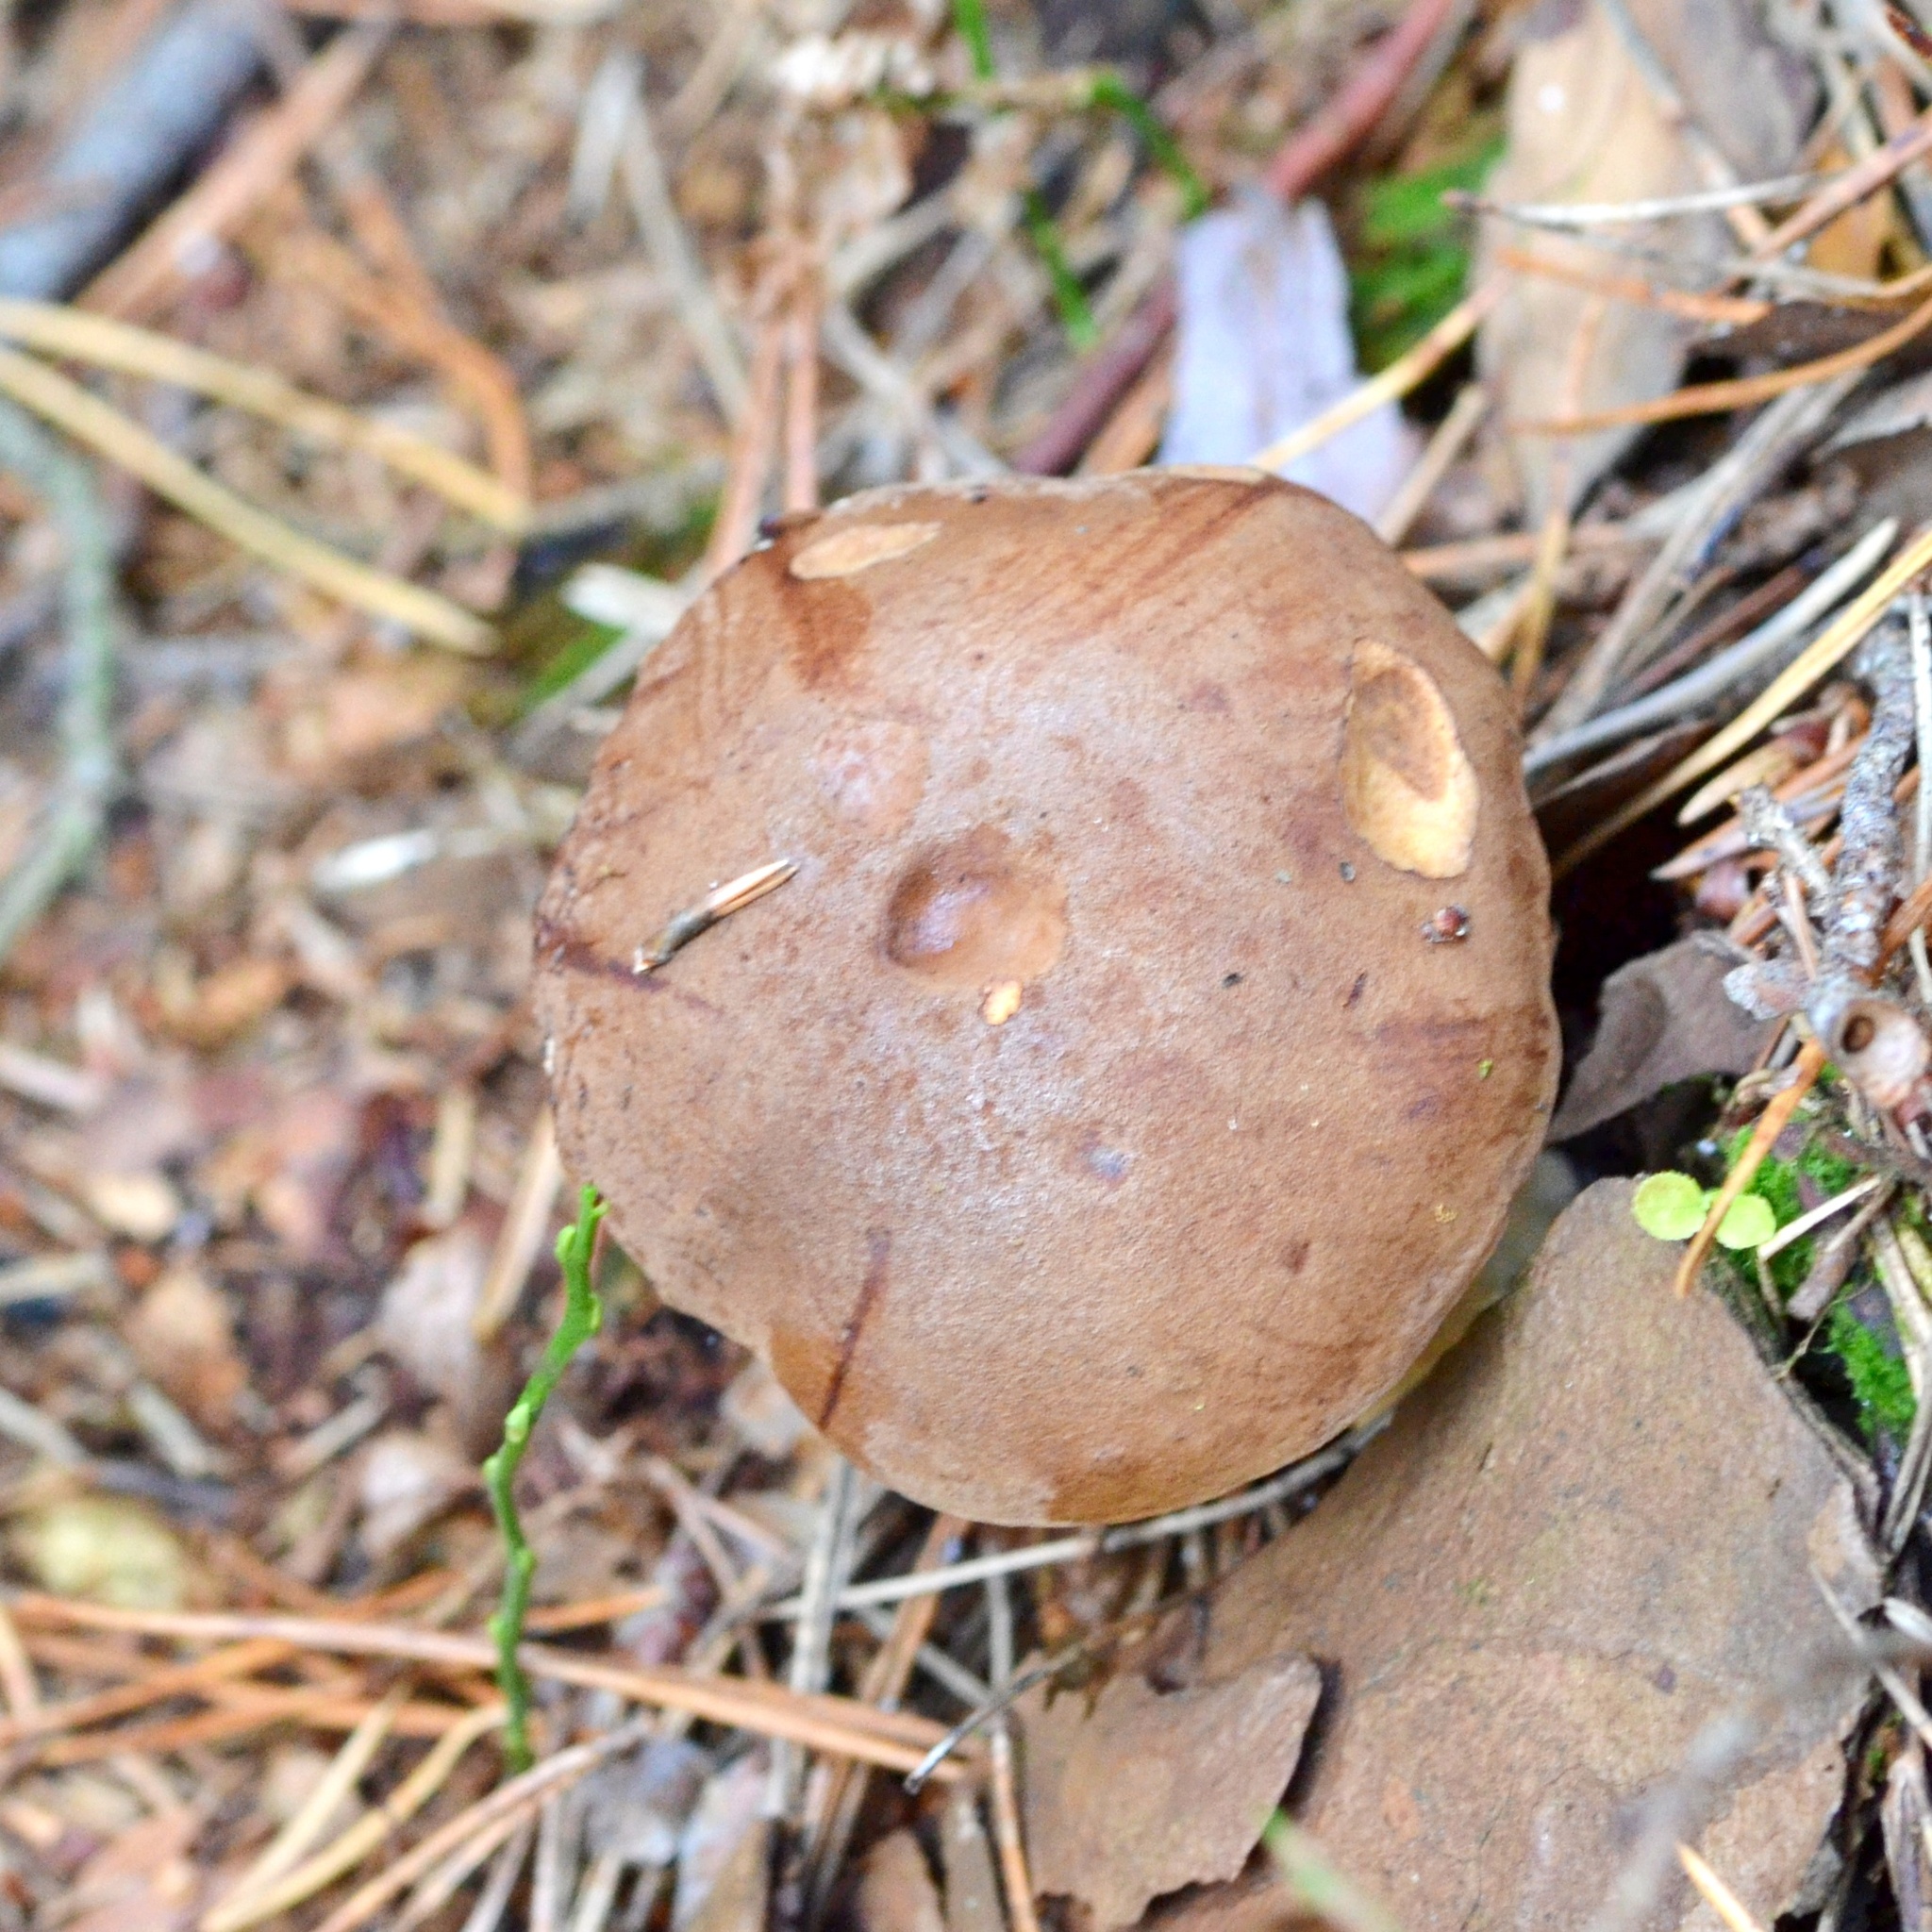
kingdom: Fungi
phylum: Basidiomycota
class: Agaricomycetes
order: Boletales
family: Boletaceae
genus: Imleria
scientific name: Imleria badia
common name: Bay bolete
